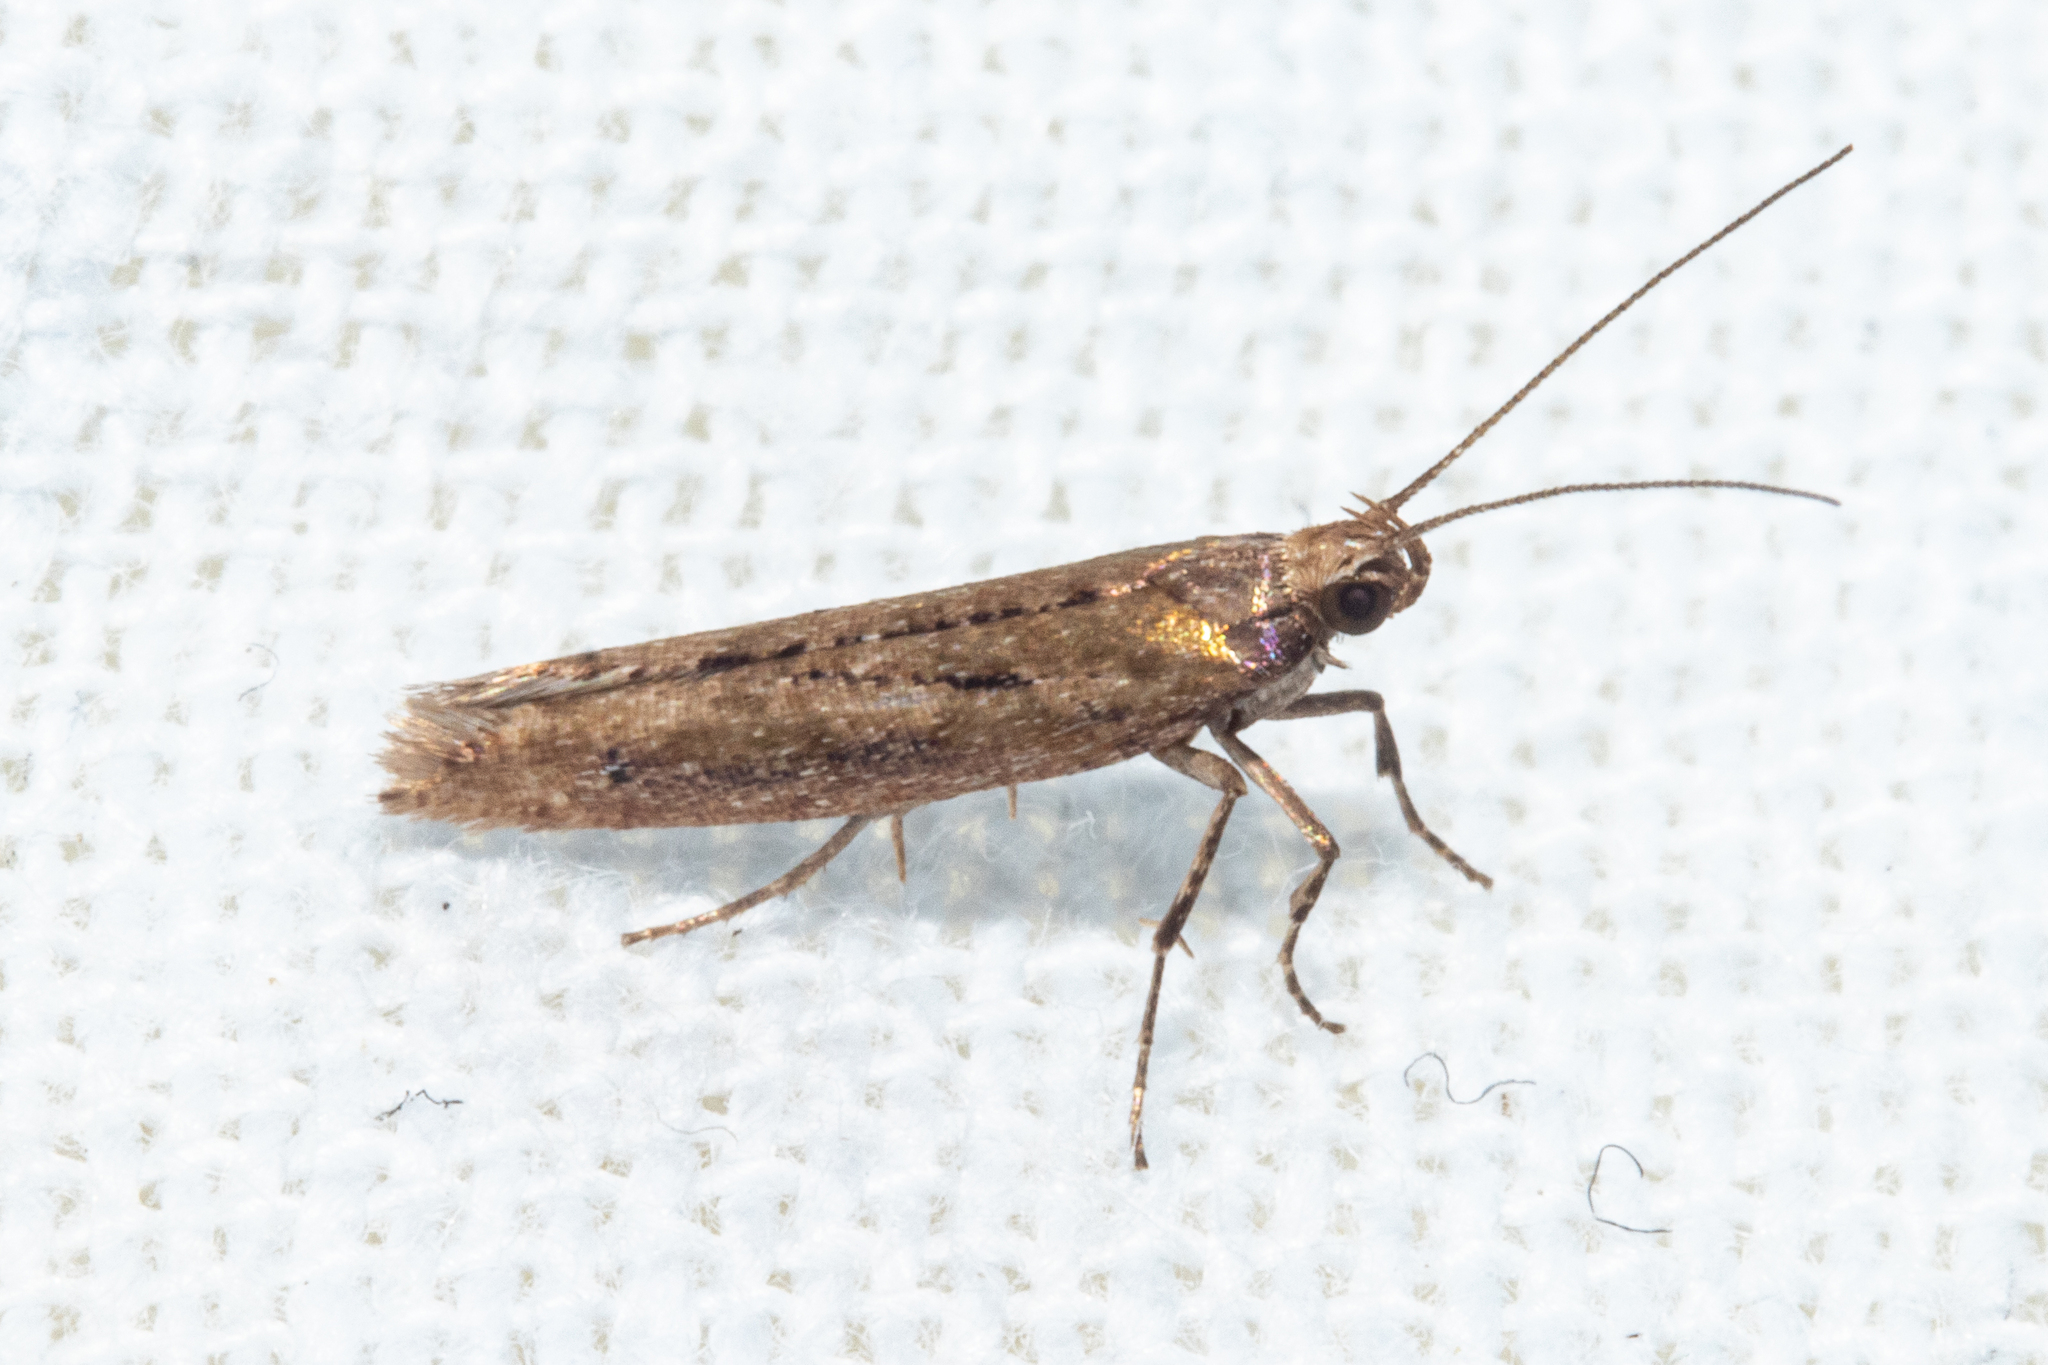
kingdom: Animalia
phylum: Arthropoda
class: Insecta
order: Lepidoptera
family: Glyphipterigidae
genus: Chrysorthenches
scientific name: Chrysorthenches porphyritis
